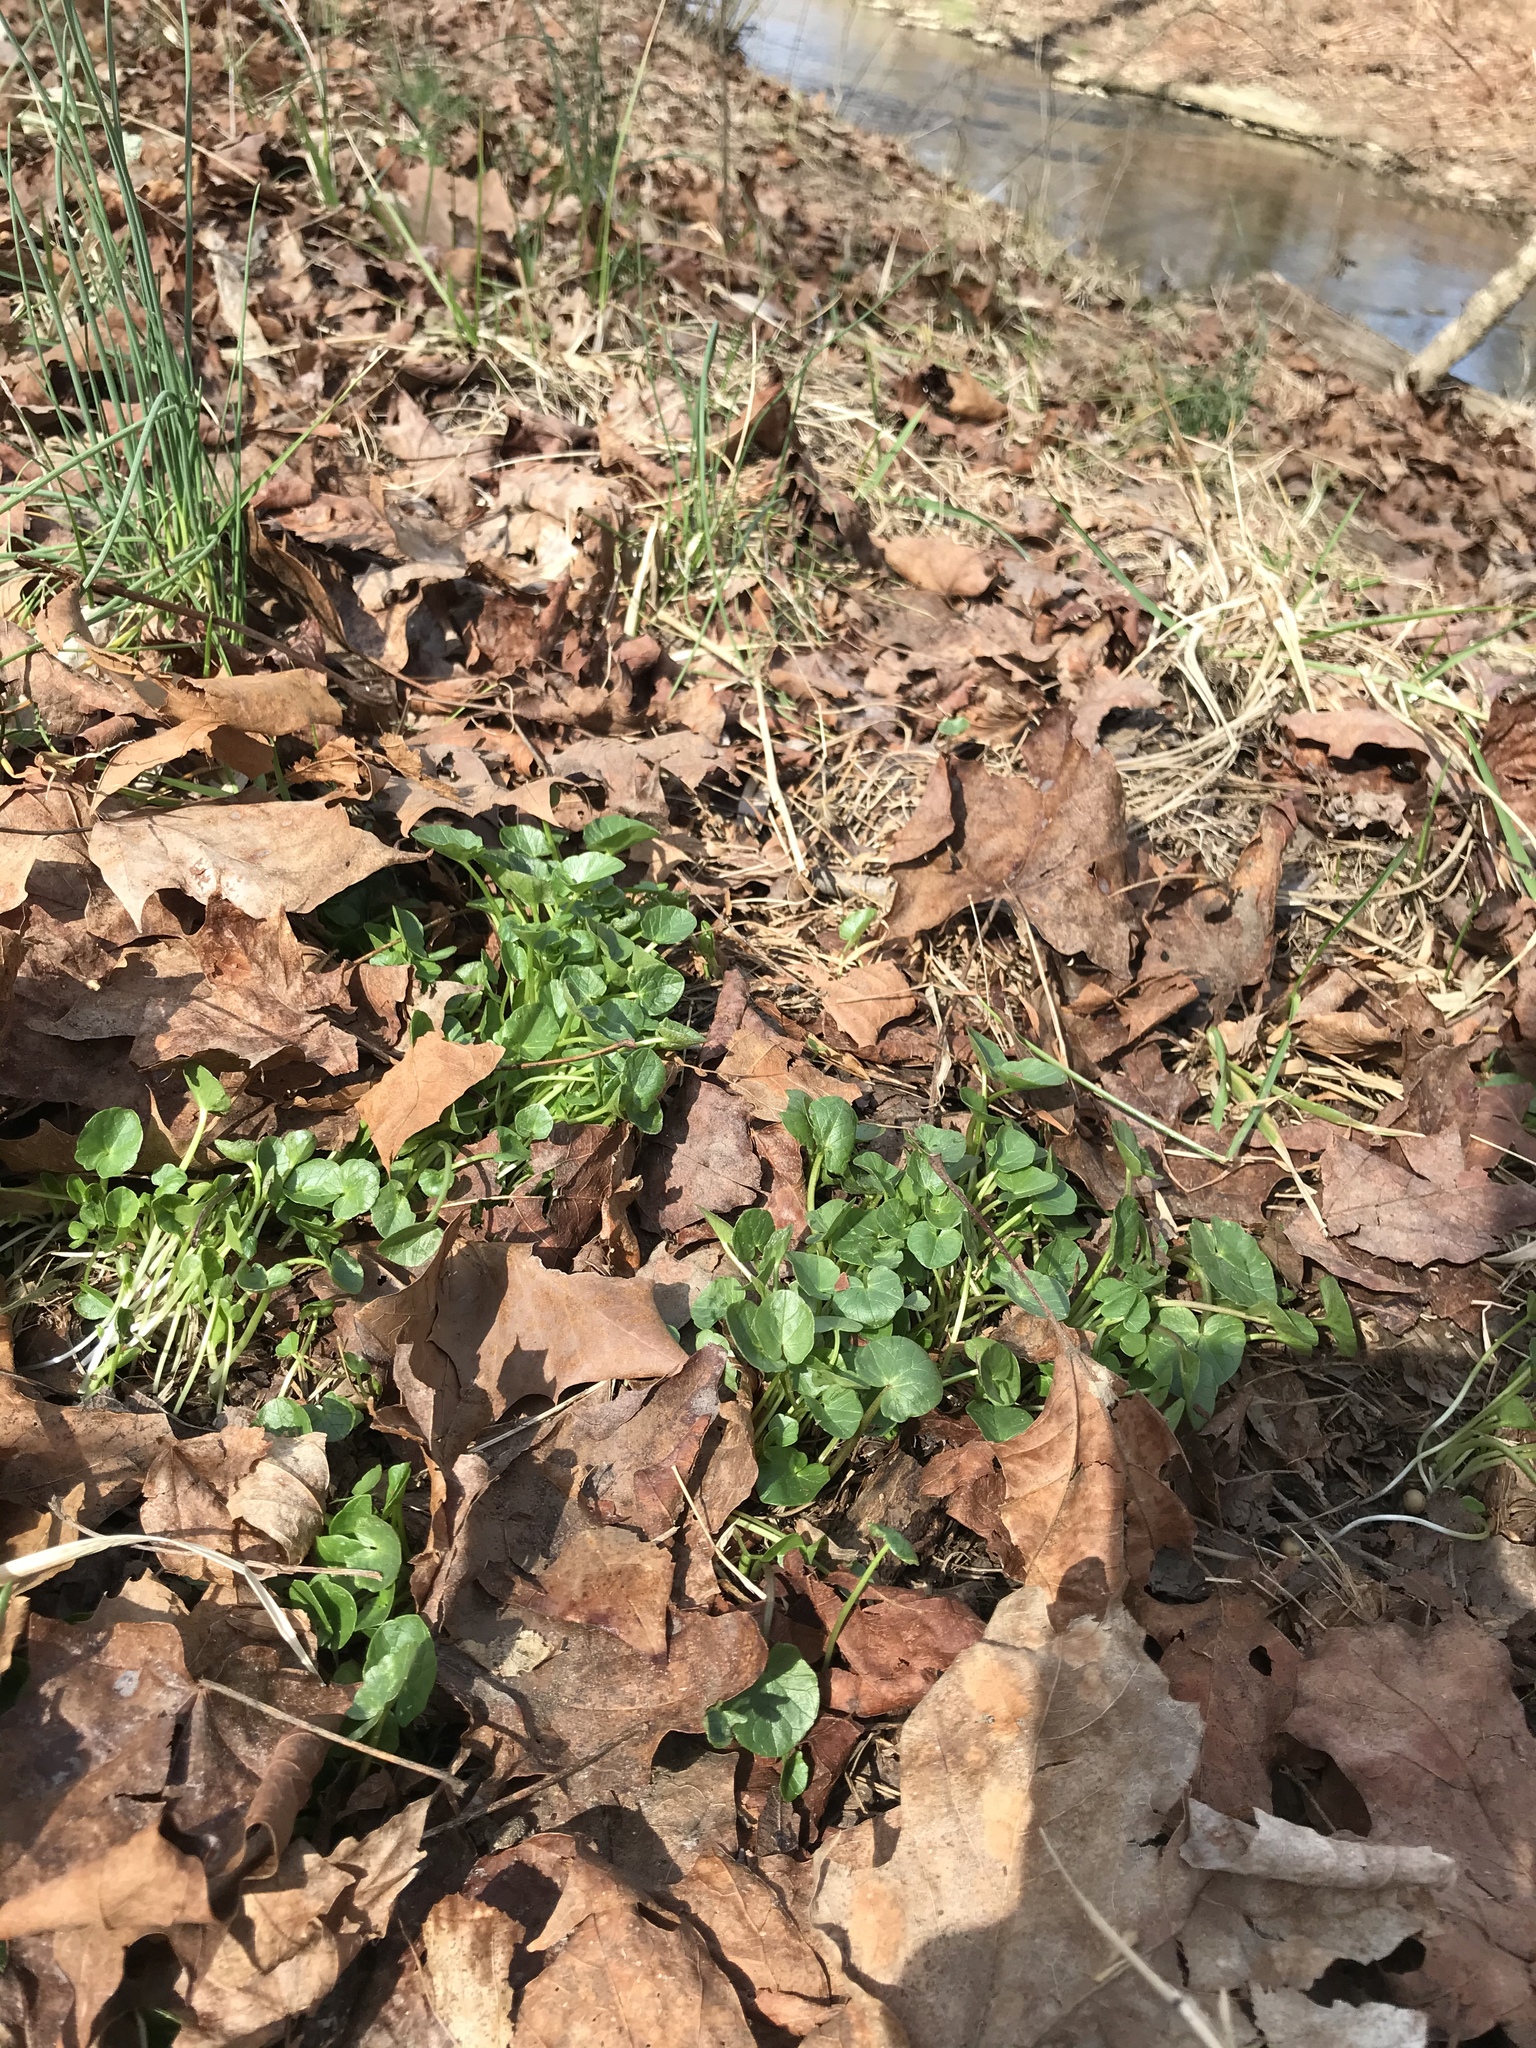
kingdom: Plantae
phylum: Tracheophyta
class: Magnoliopsida
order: Ranunculales
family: Ranunculaceae
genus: Ficaria
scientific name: Ficaria verna
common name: Lesser celandine
